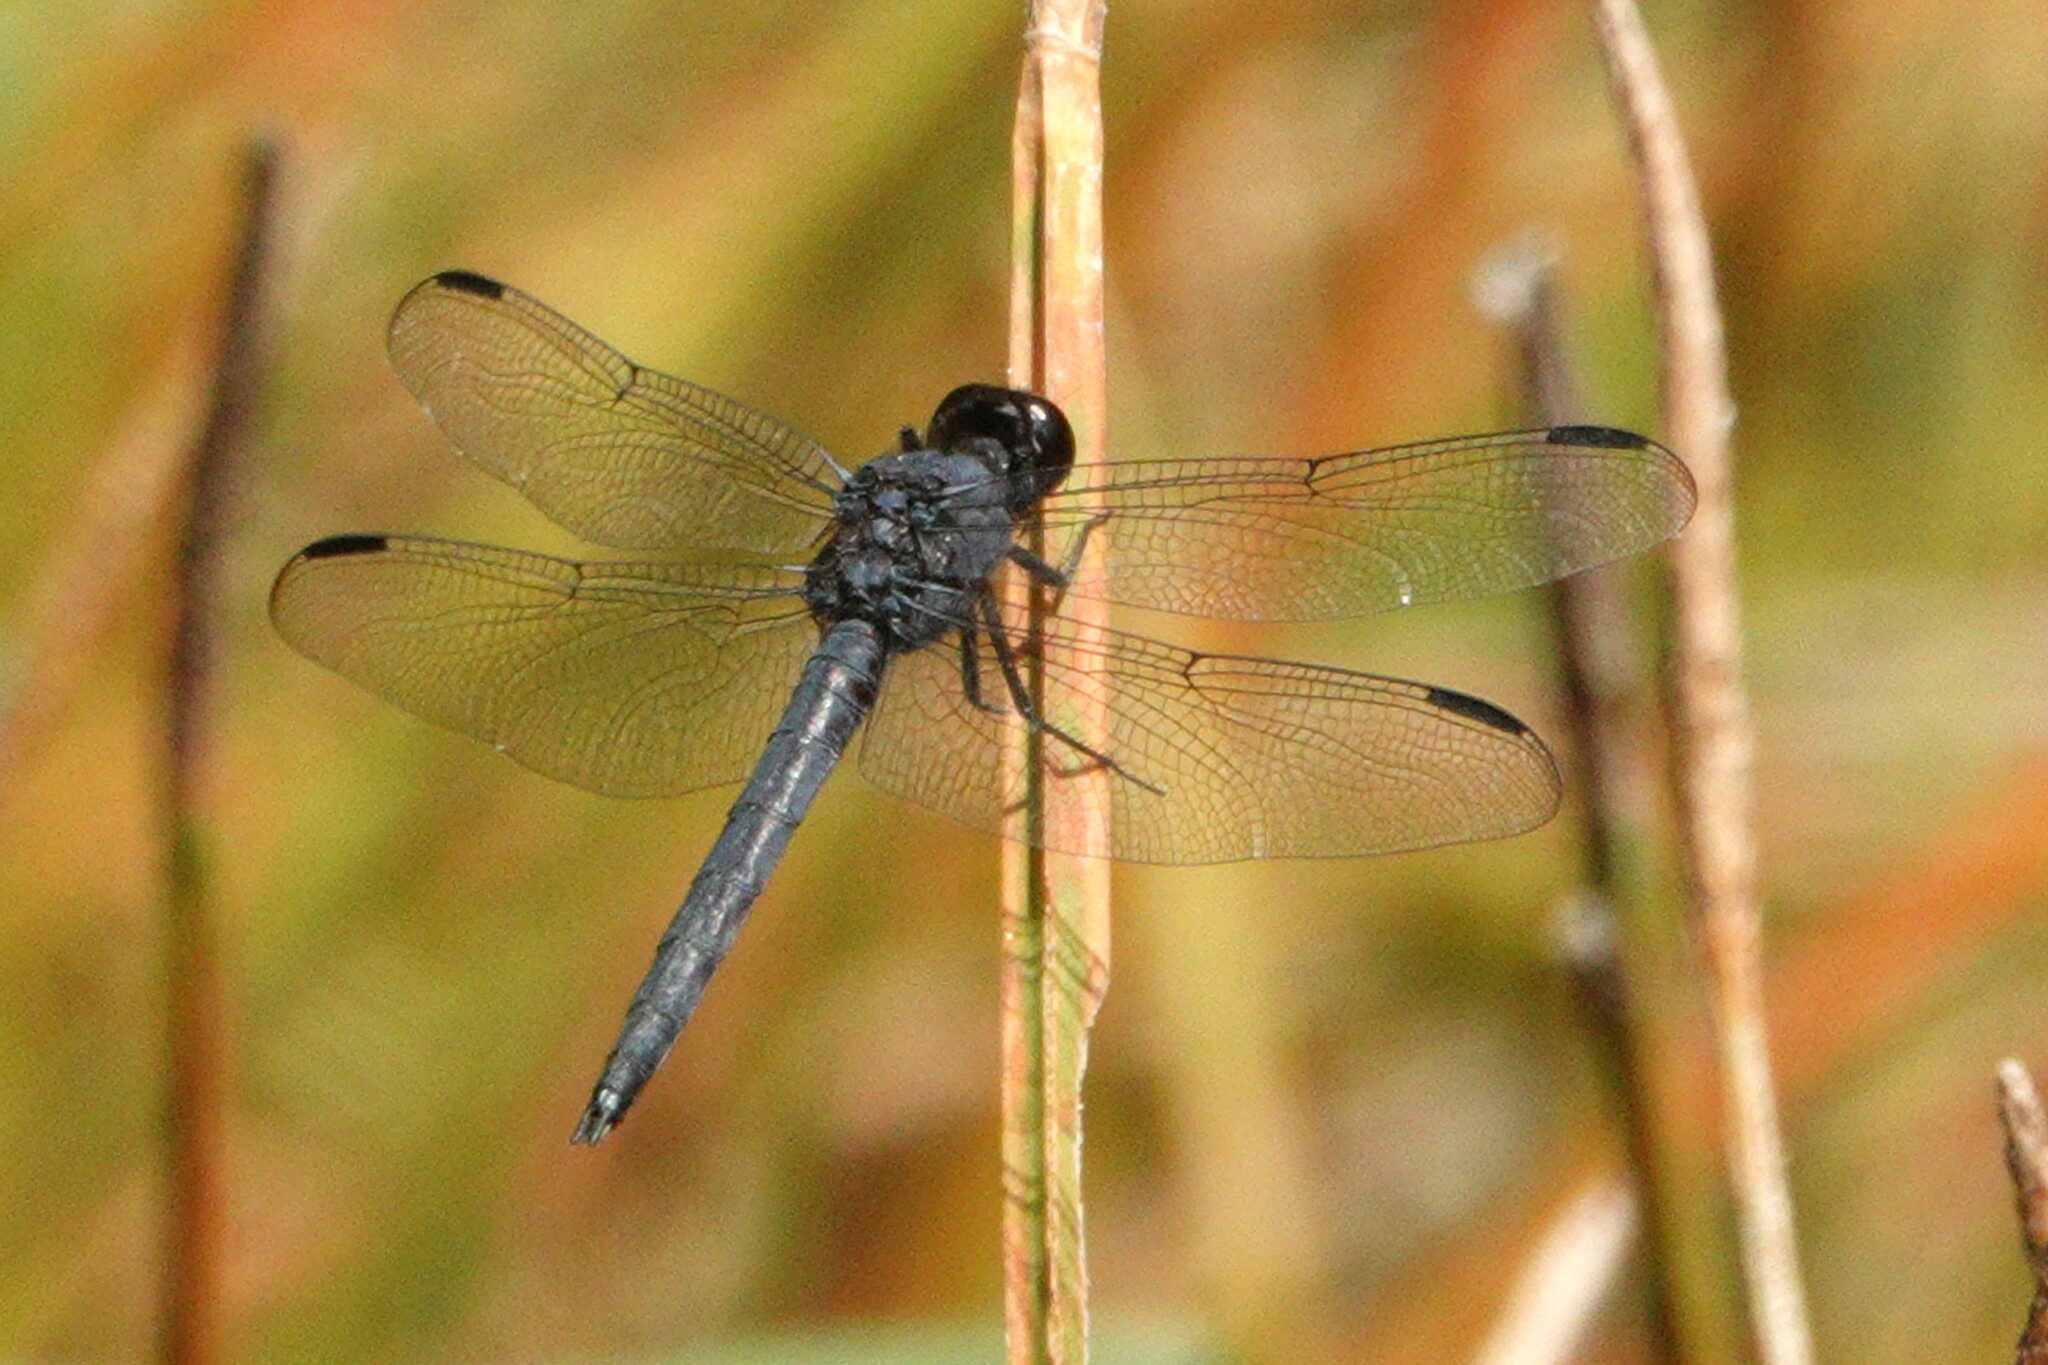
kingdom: Animalia
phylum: Arthropoda
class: Insecta
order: Odonata
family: Libellulidae
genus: Libellula
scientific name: Libellula incesta
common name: Slaty skimmer
